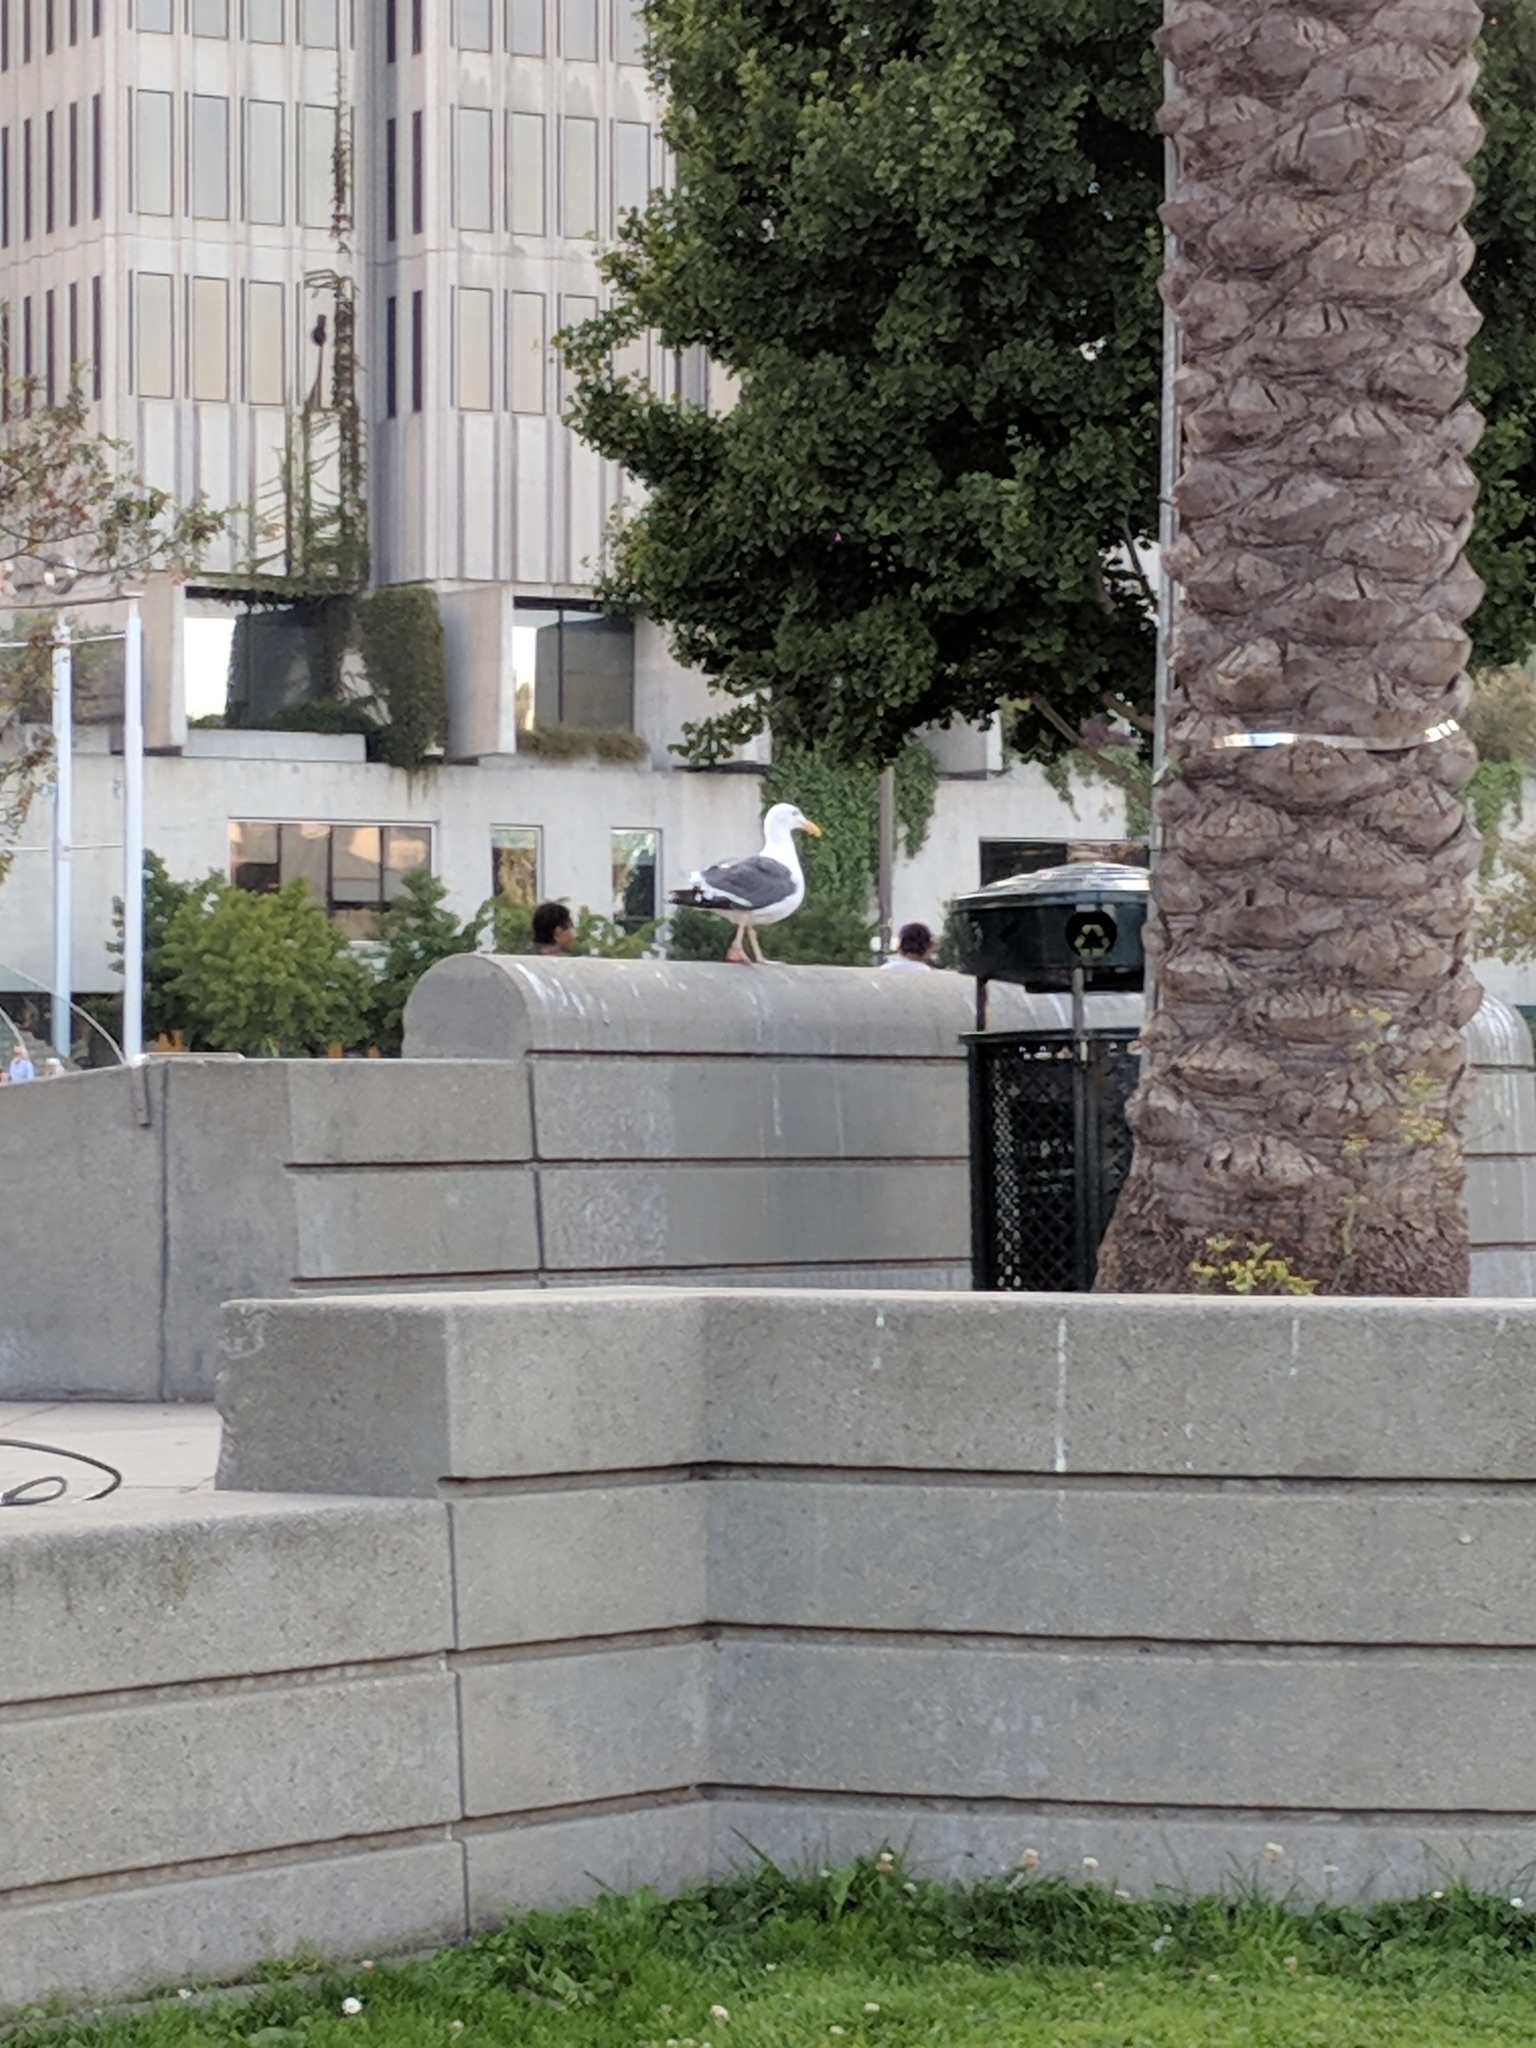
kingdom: Animalia
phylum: Chordata
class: Aves
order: Charadriiformes
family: Laridae
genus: Larus
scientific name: Larus occidentalis
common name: Western gull
